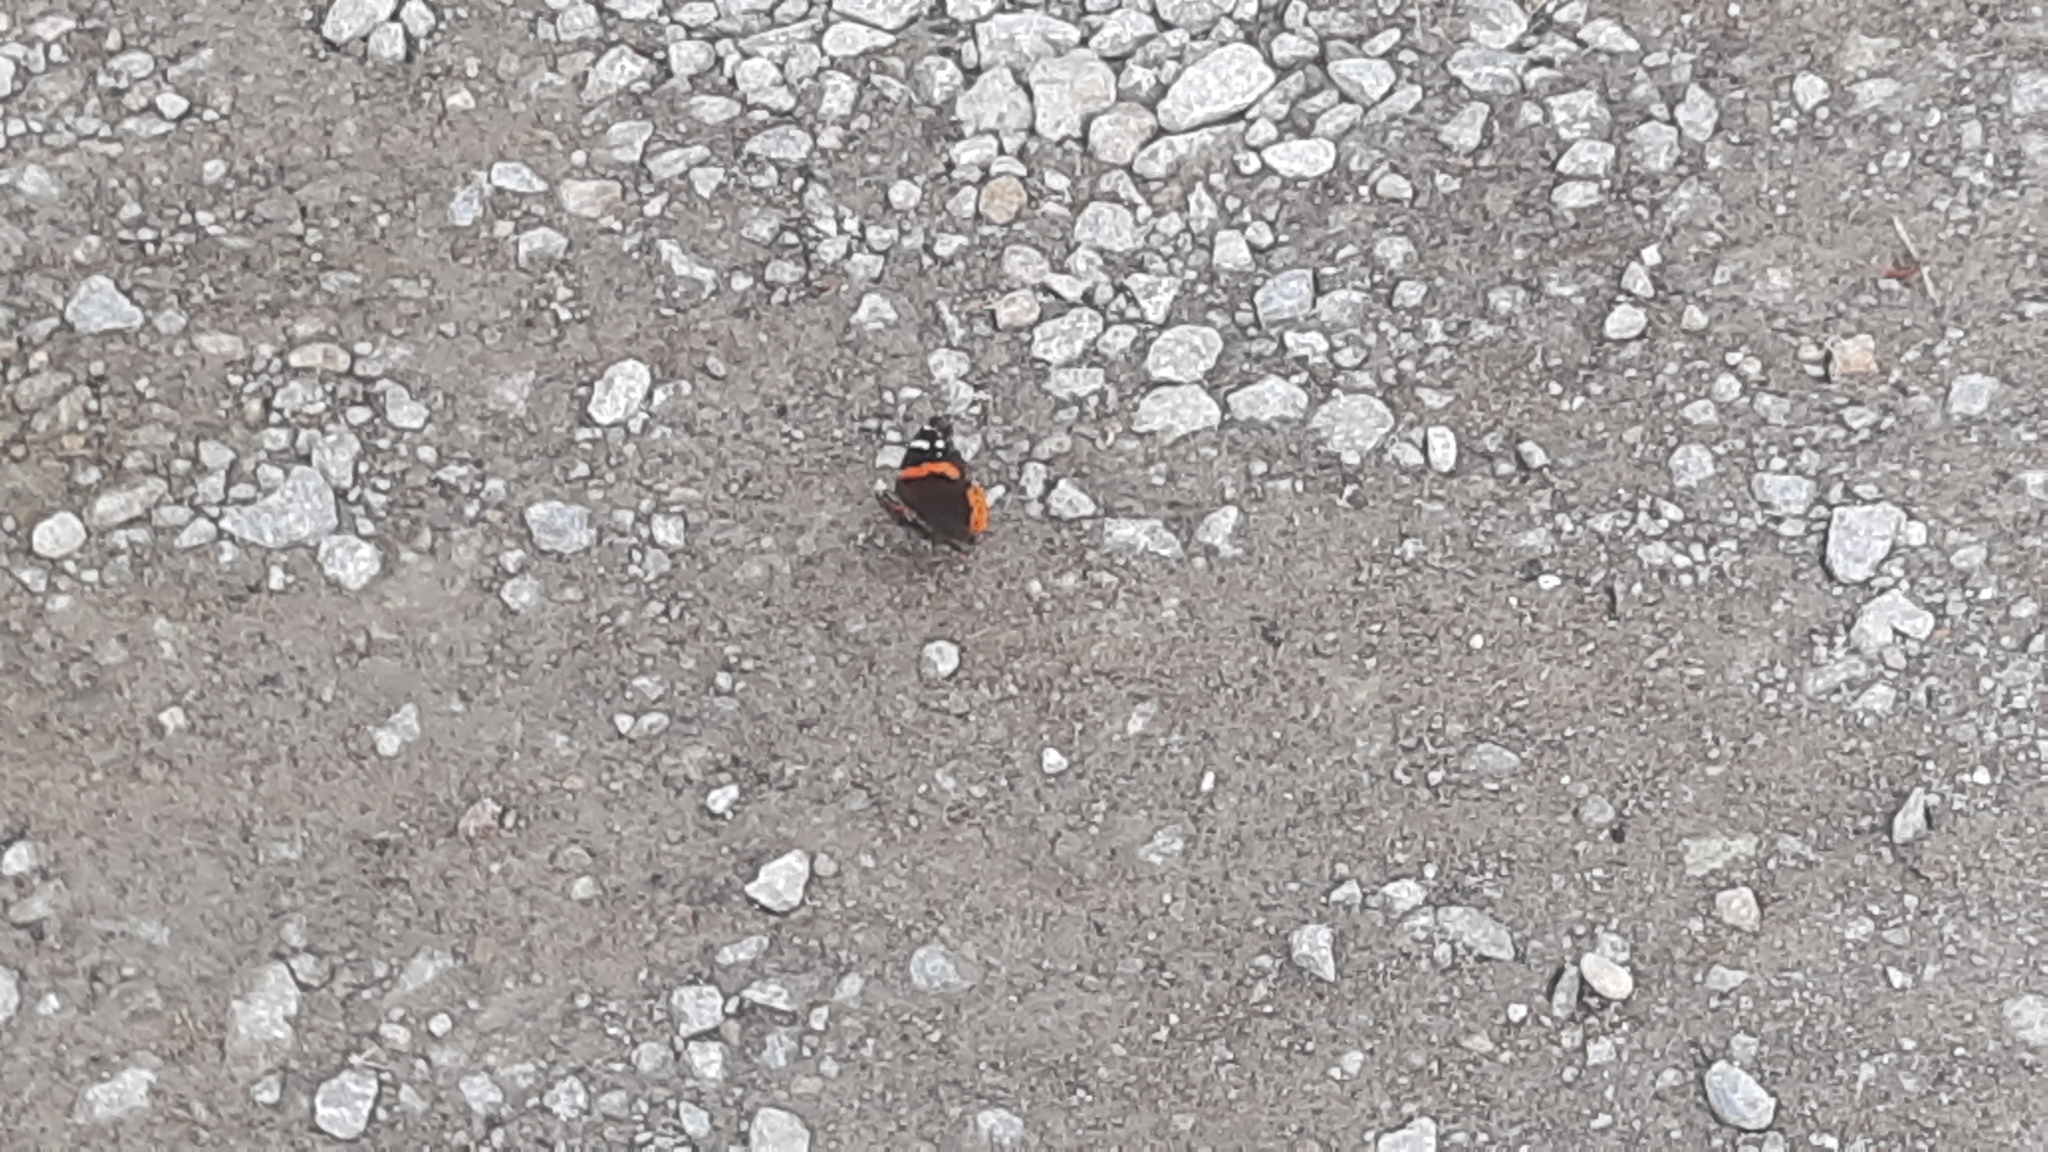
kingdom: Animalia
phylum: Arthropoda
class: Insecta
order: Lepidoptera
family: Nymphalidae
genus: Vanessa
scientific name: Vanessa atalanta
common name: Red admiral
